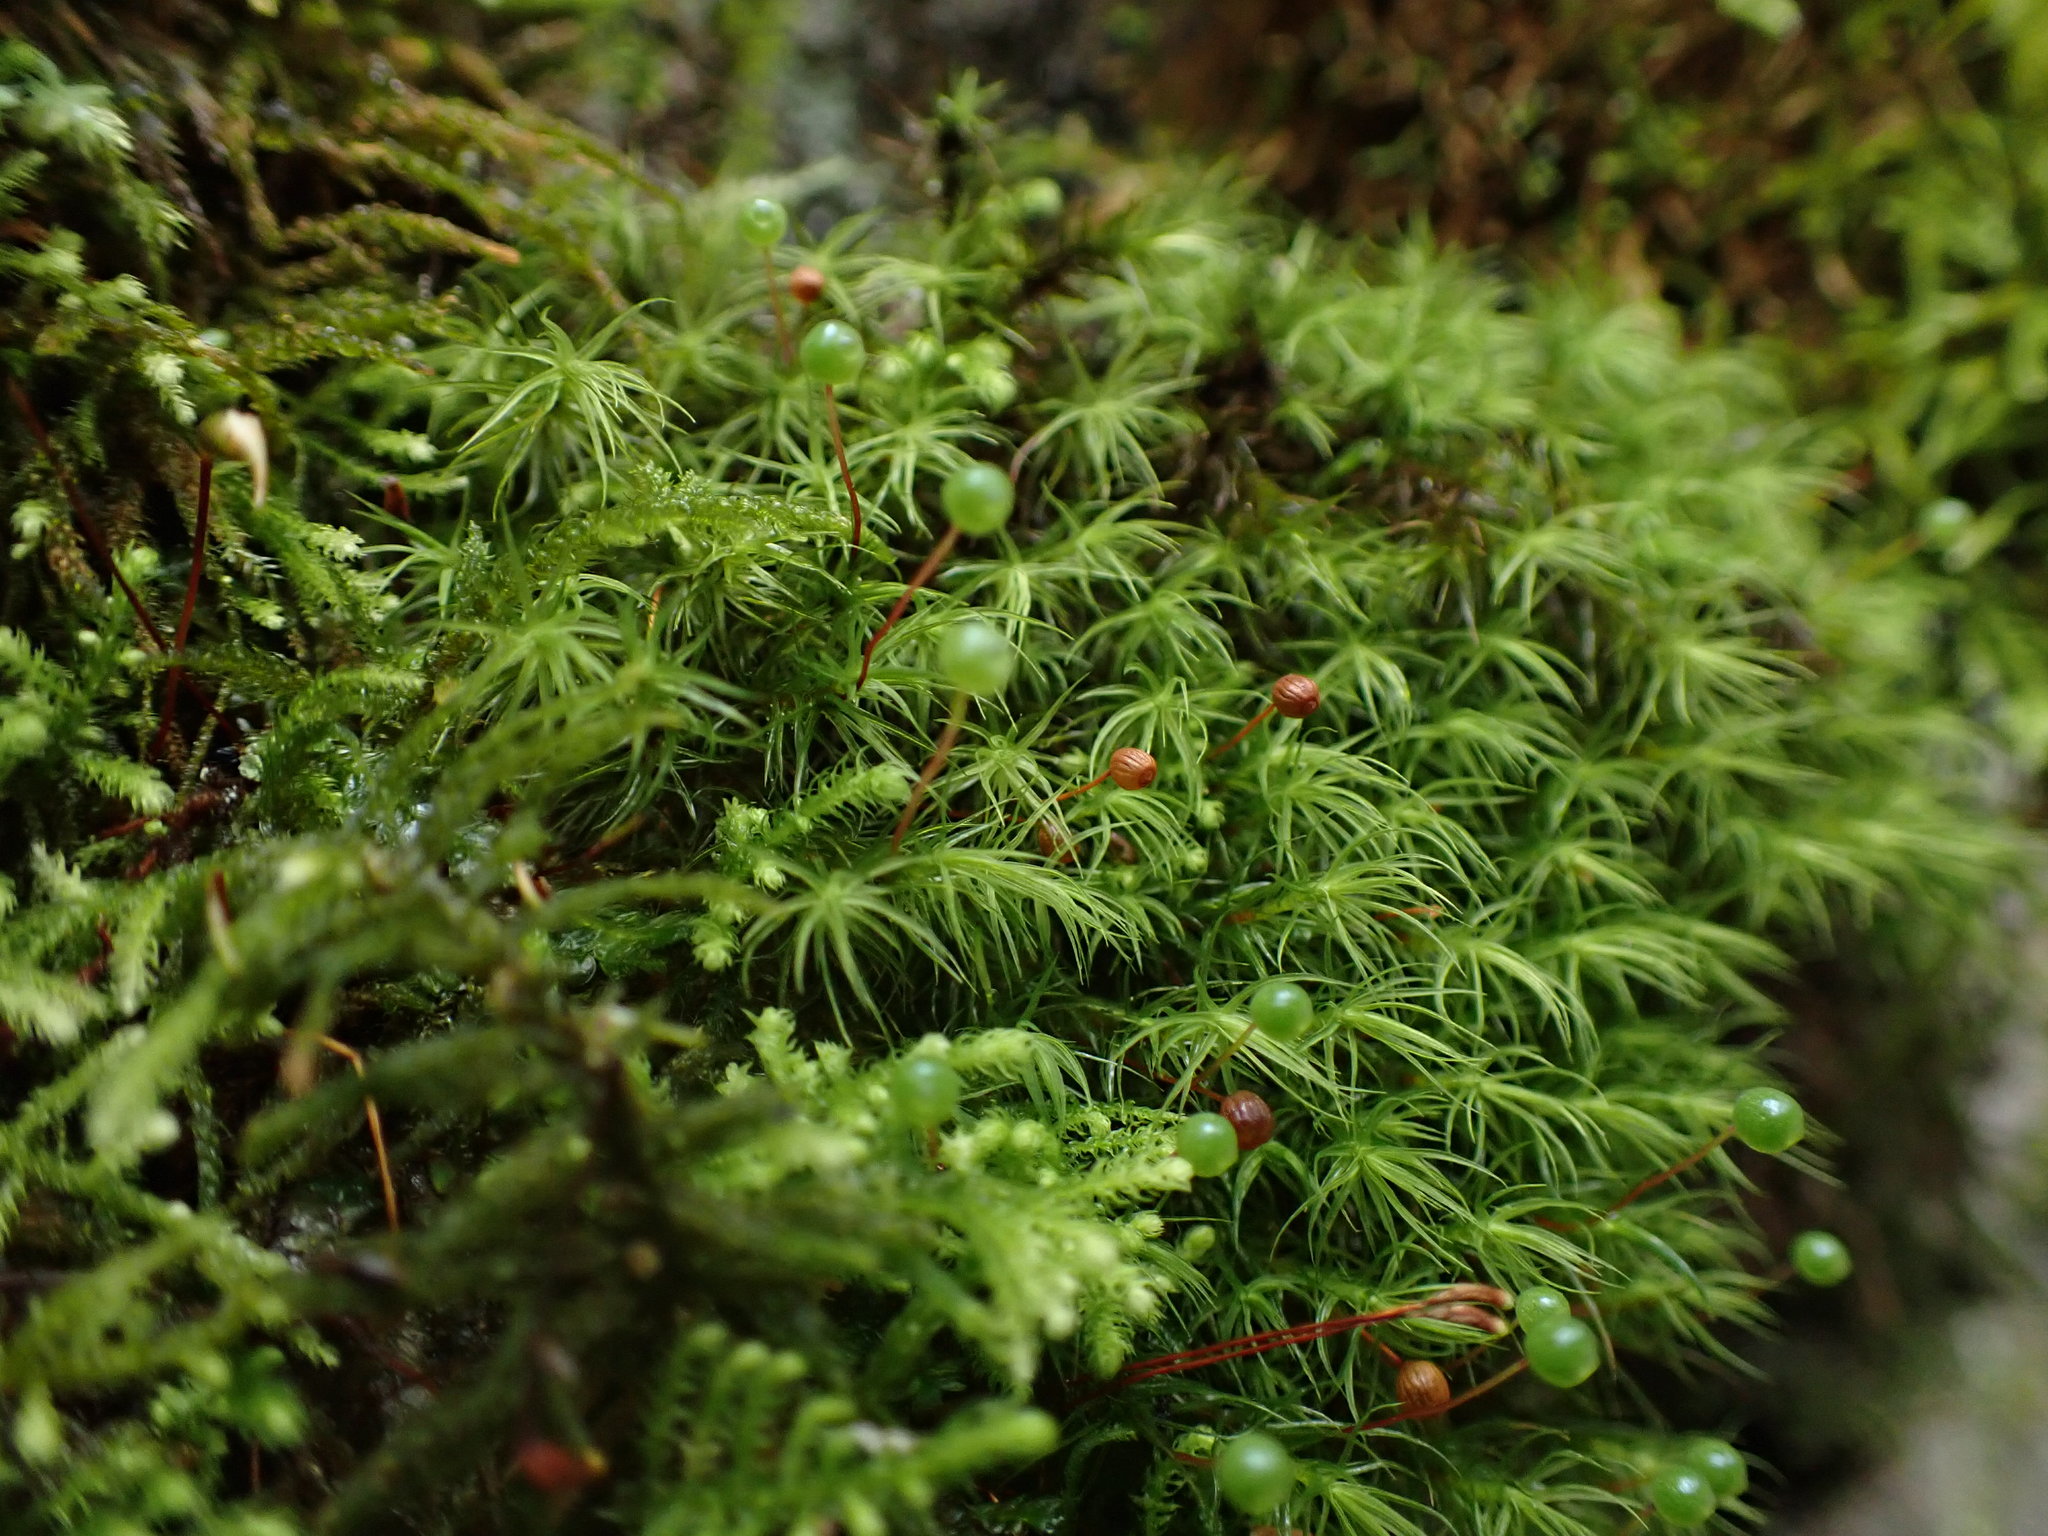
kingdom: Plantae
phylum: Bryophyta
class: Bryopsida
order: Bartramiales
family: Bartramiaceae
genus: Bartramia
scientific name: Bartramia ithyphylla
